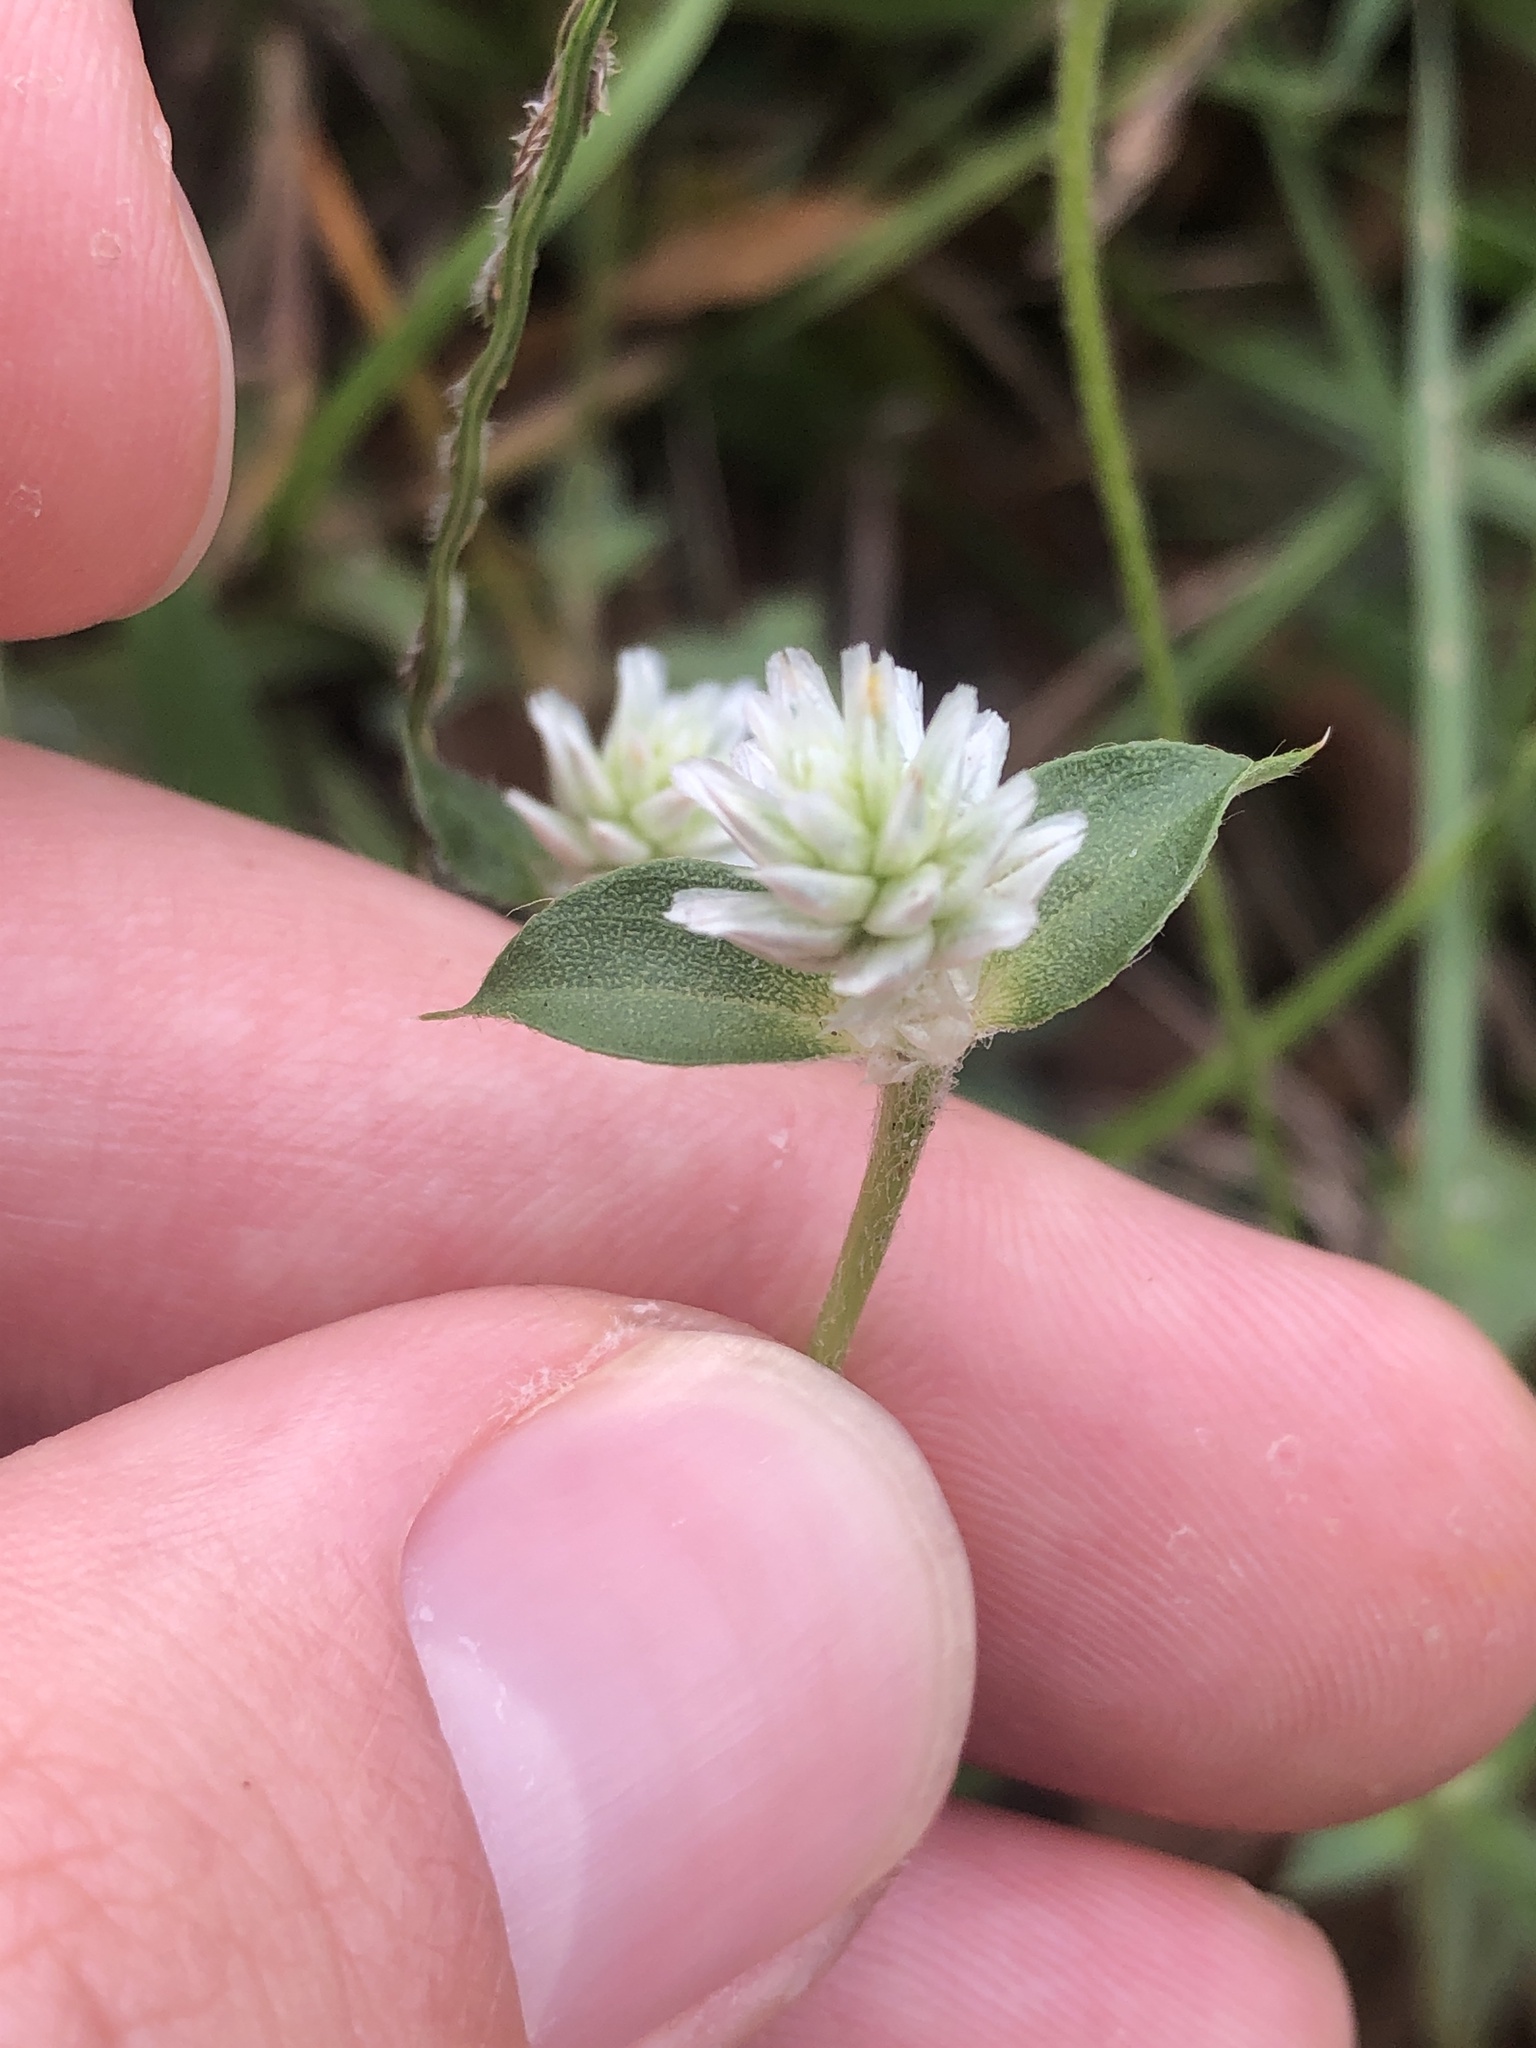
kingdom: Plantae
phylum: Tracheophyta
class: Magnoliopsida
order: Caryophyllales
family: Amaranthaceae
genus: Gomphrena
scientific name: Gomphrena serrata
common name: Arrasa con todo
